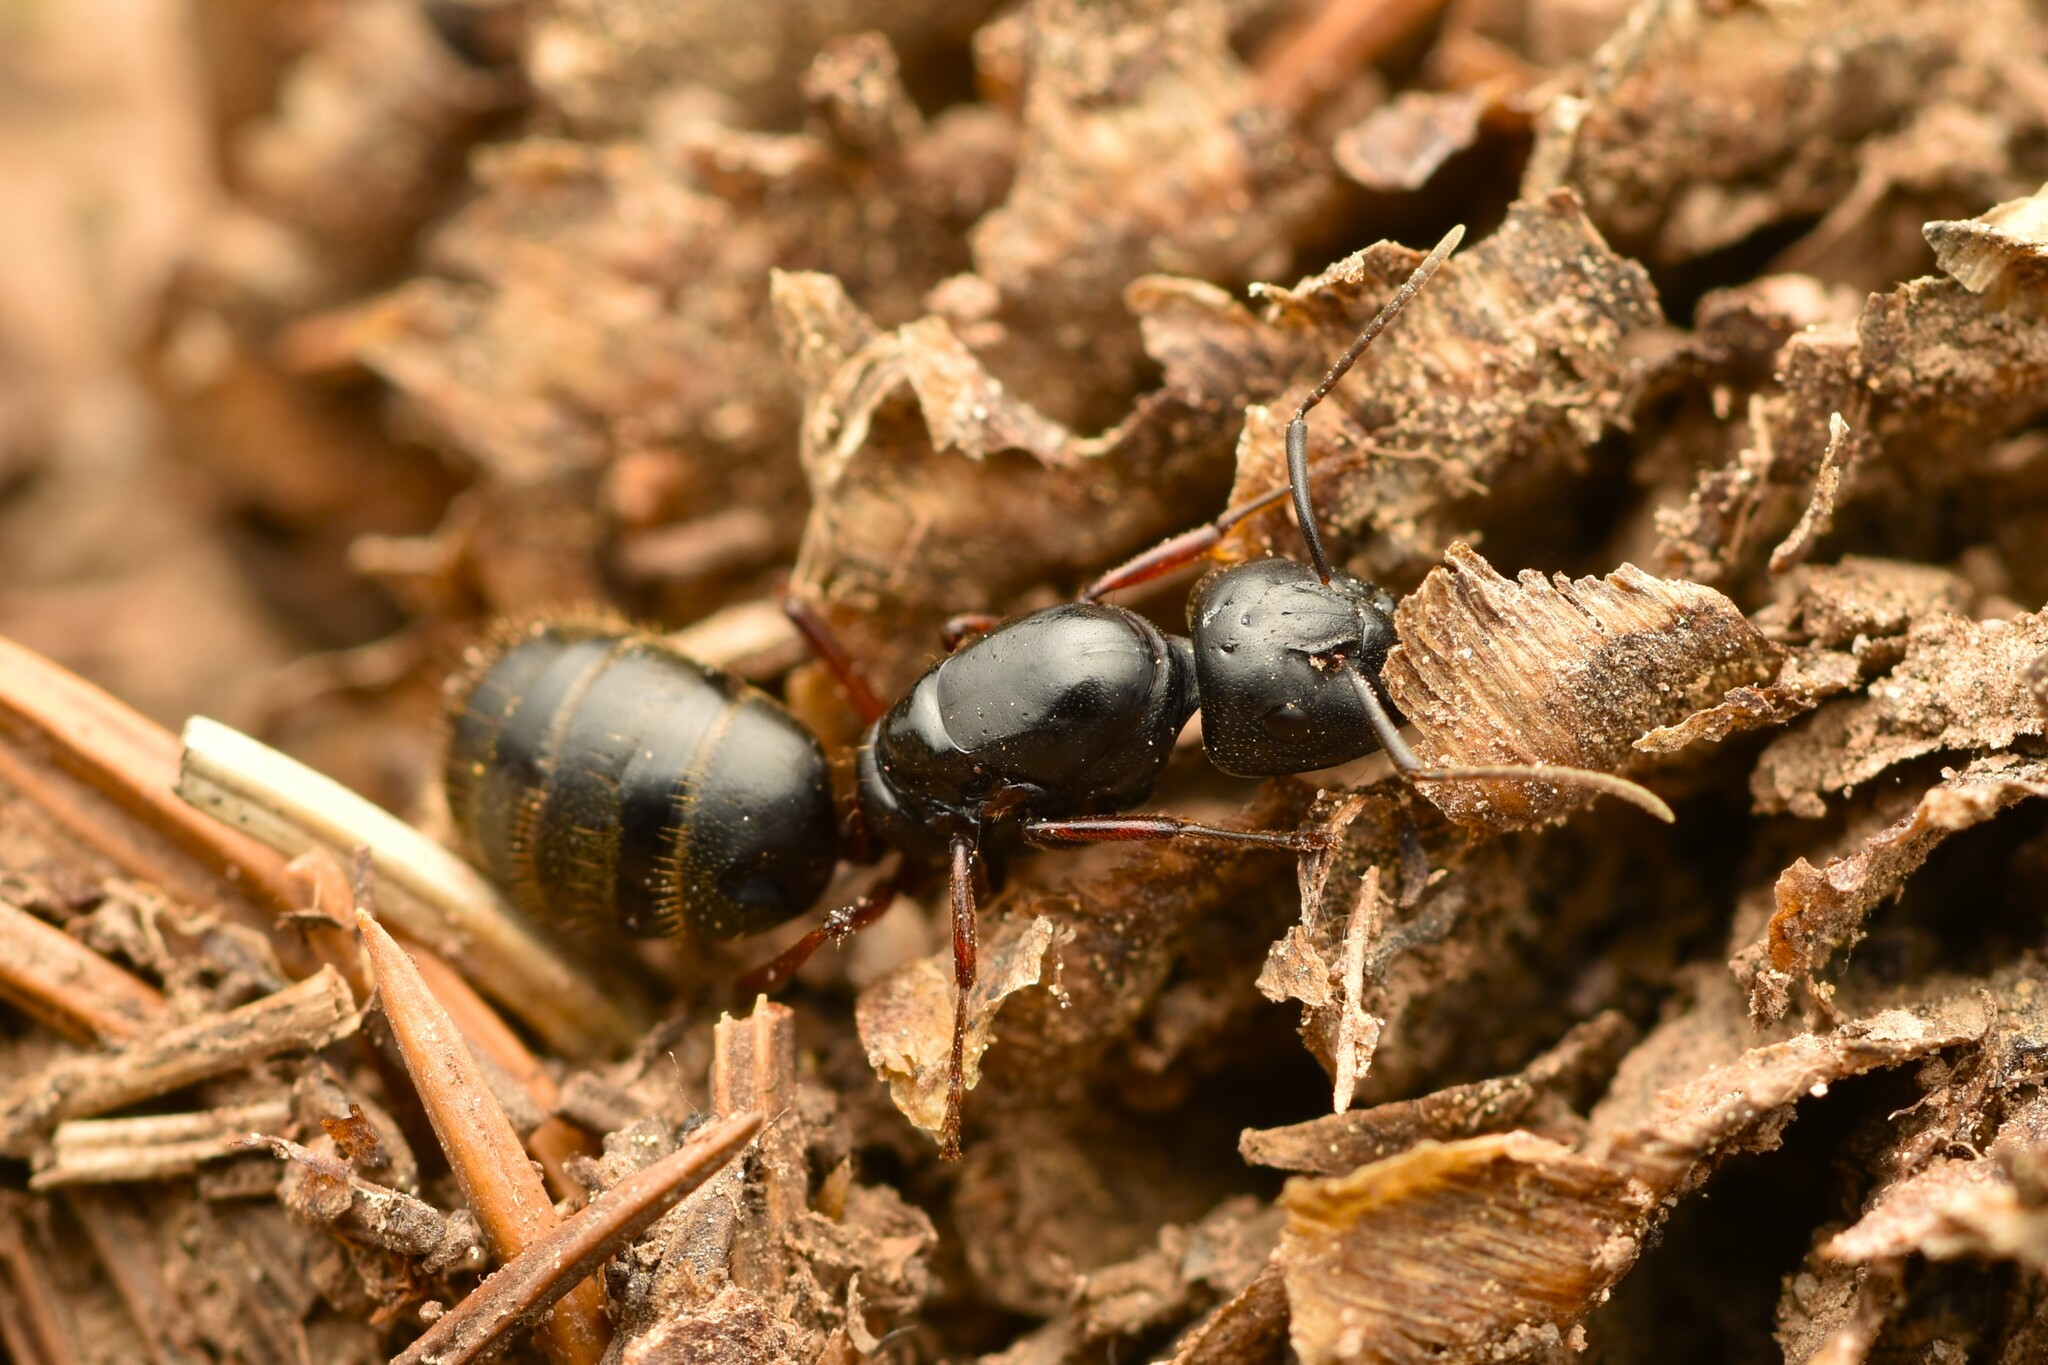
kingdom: Animalia
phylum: Arthropoda
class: Insecta
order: Hymenoptera
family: Formicidae
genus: Camponotus
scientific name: Camponotus modoc
